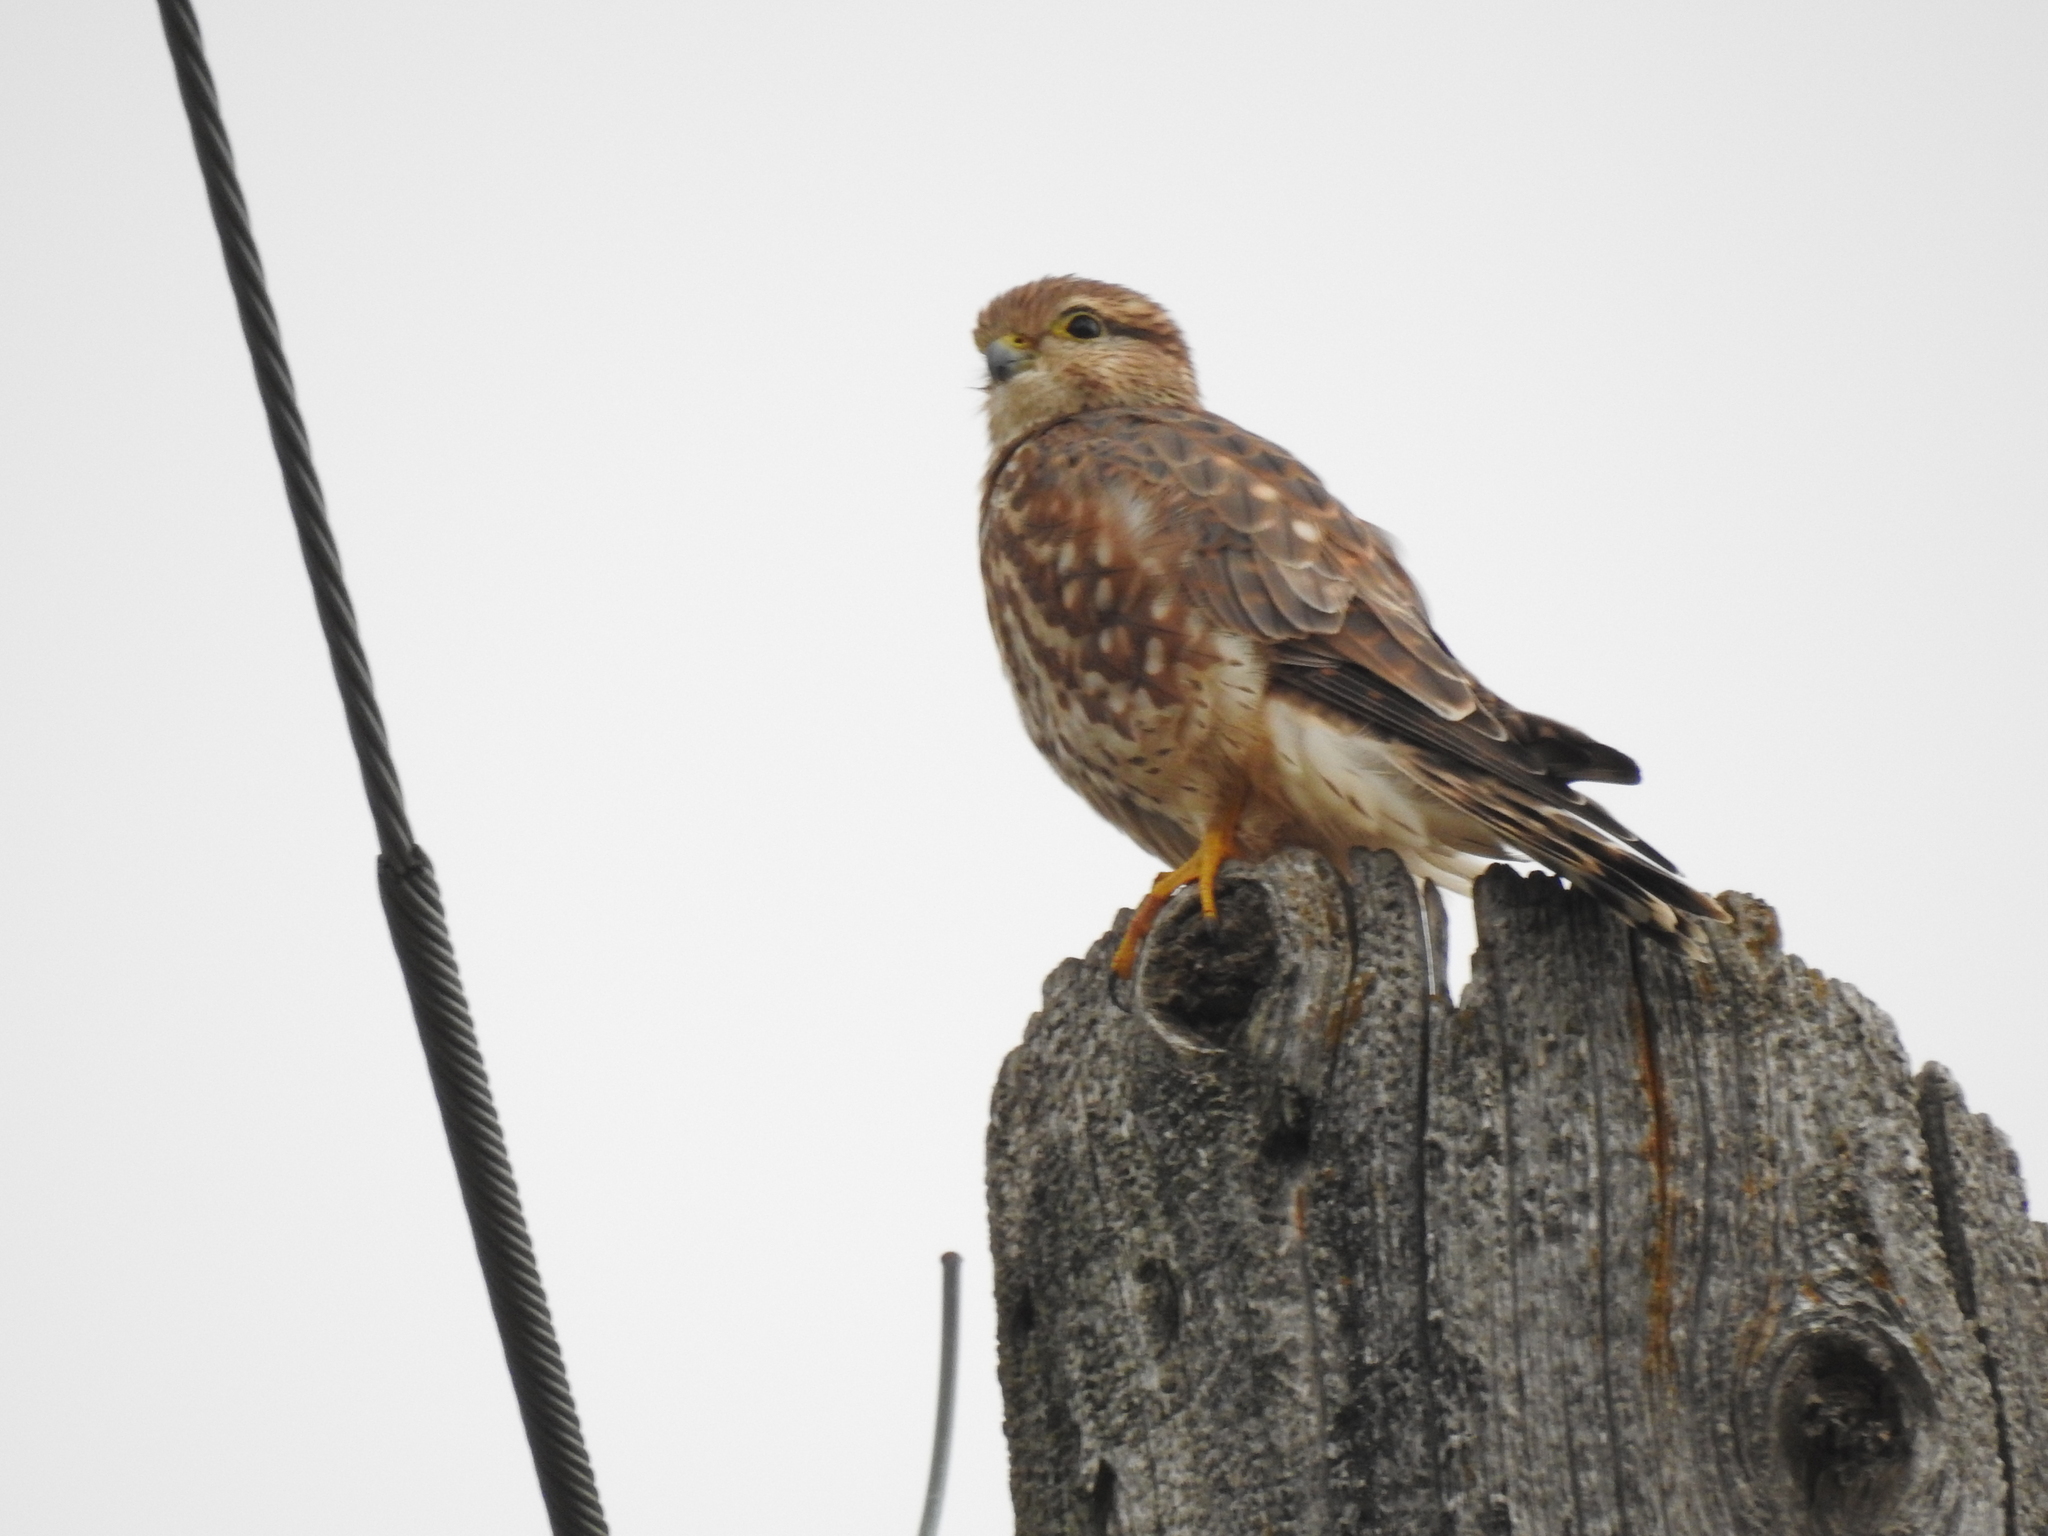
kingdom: Animalia
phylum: Chordata
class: Aves
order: Falconiformes
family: Falconidae
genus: Falco
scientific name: Falco columbarius
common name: Merlin
